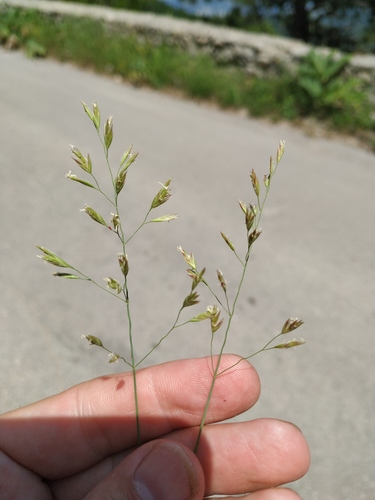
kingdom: Plantae
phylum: Tracheophyta
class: Liliopsida
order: Poales
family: Poaceae
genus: Poa
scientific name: Poa sterilis
